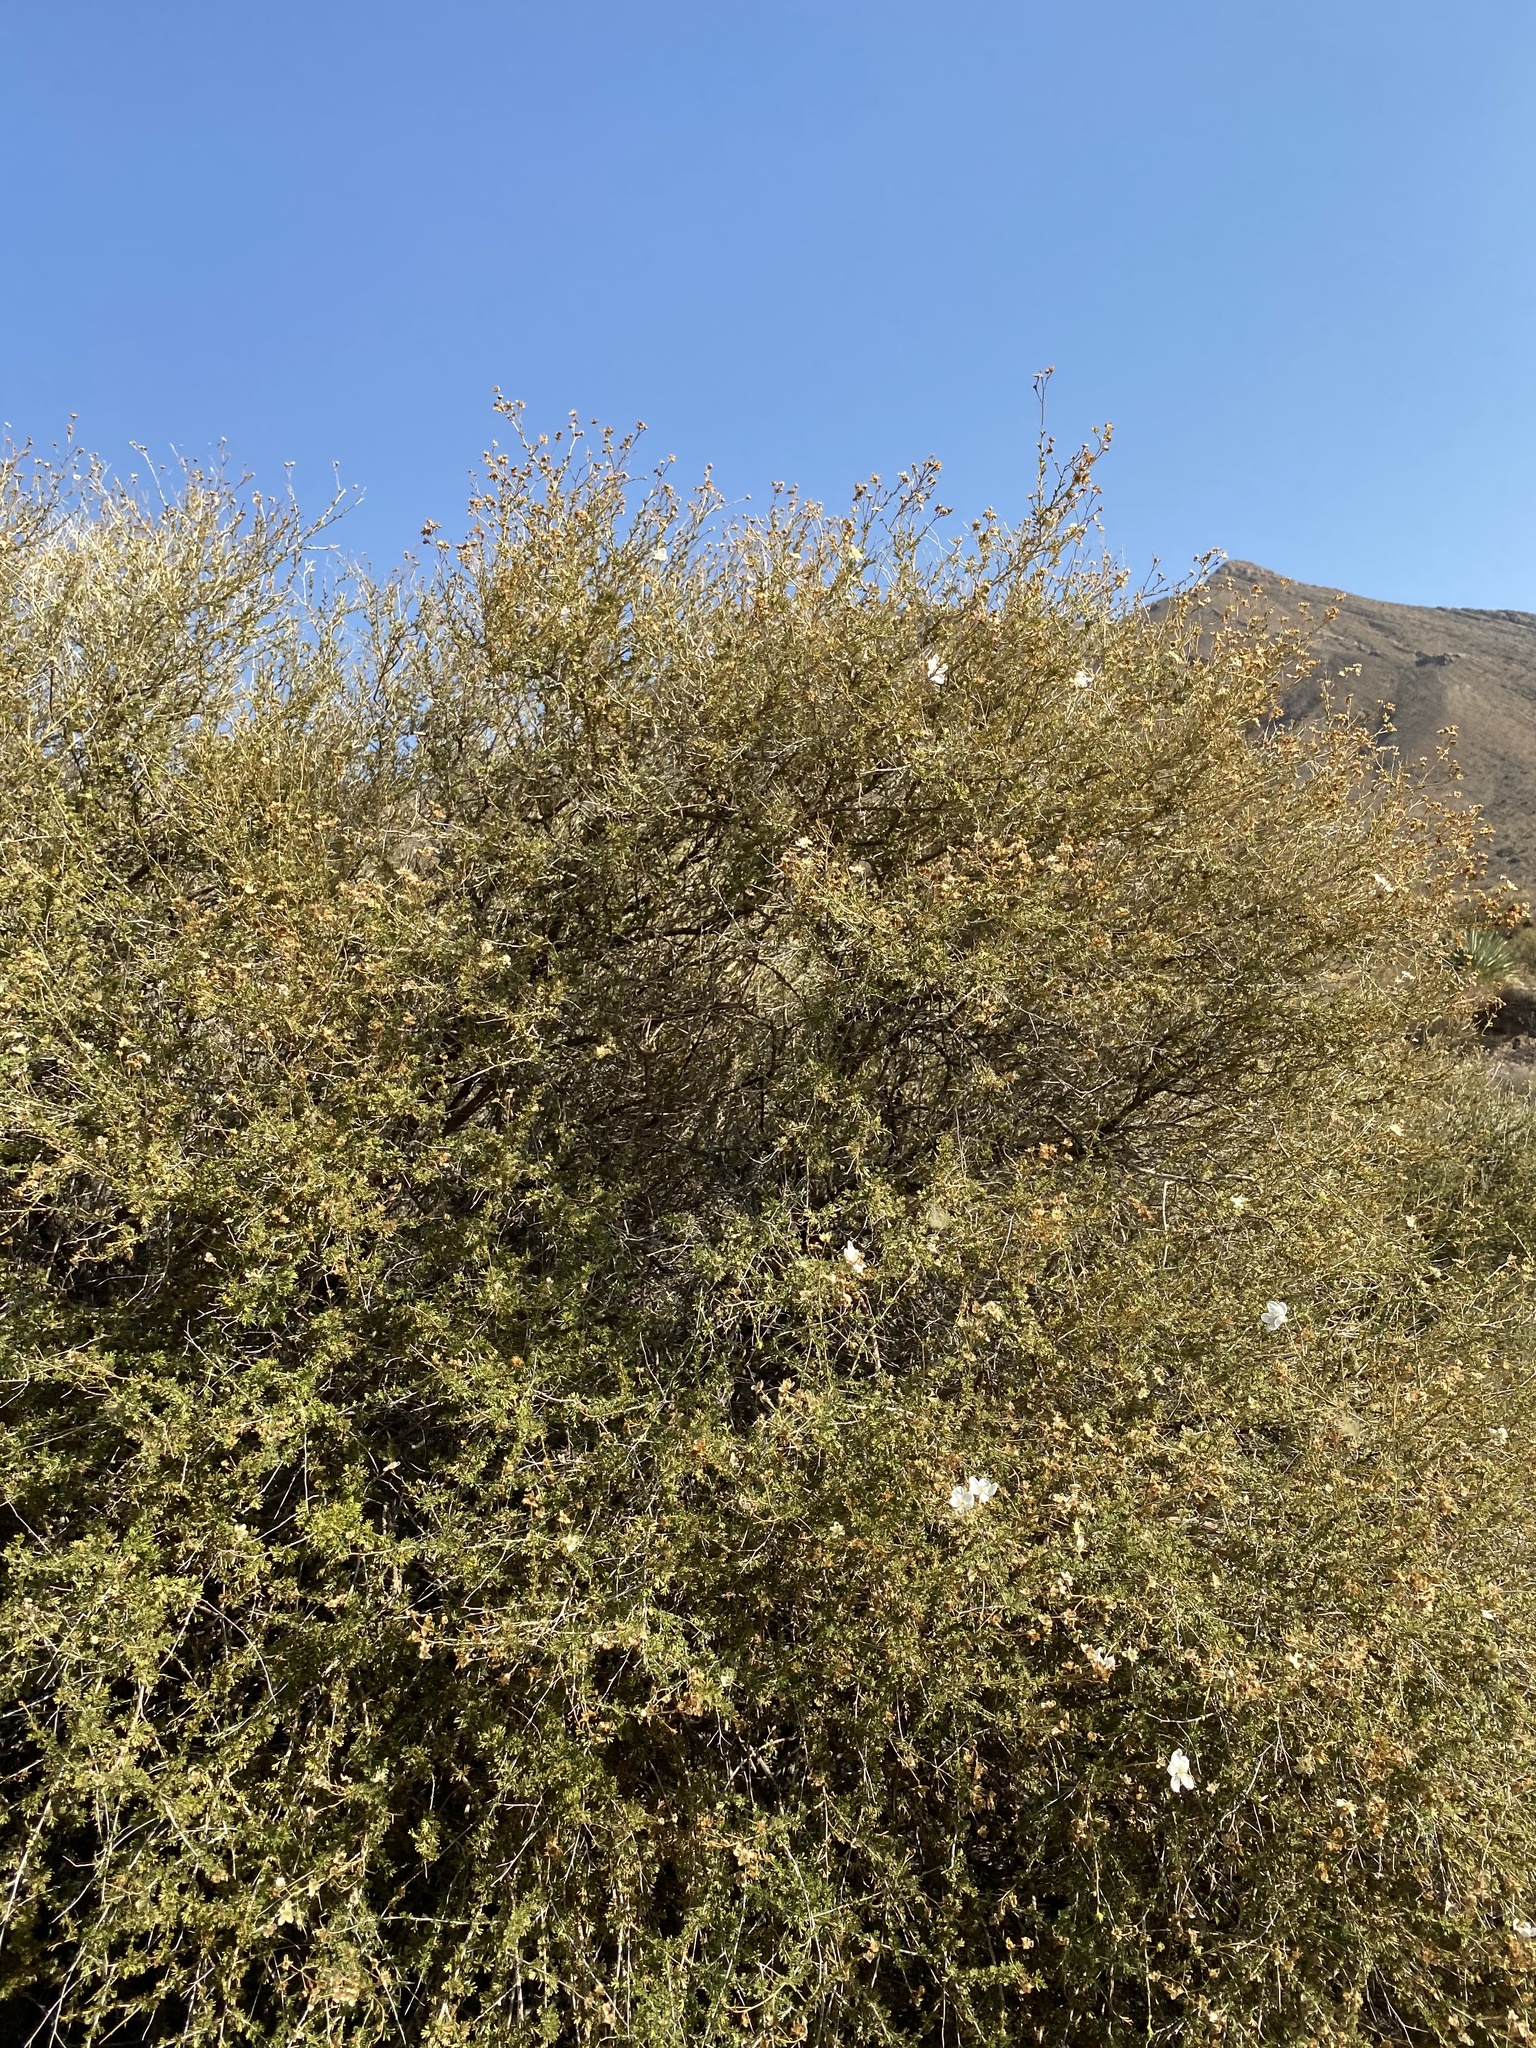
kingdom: Plantae
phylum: Tracheophyta
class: Magnoliopsida
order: Rosales
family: Rosaceae
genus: Fallugia
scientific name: Fallugia paradoxa
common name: Apache-plume
